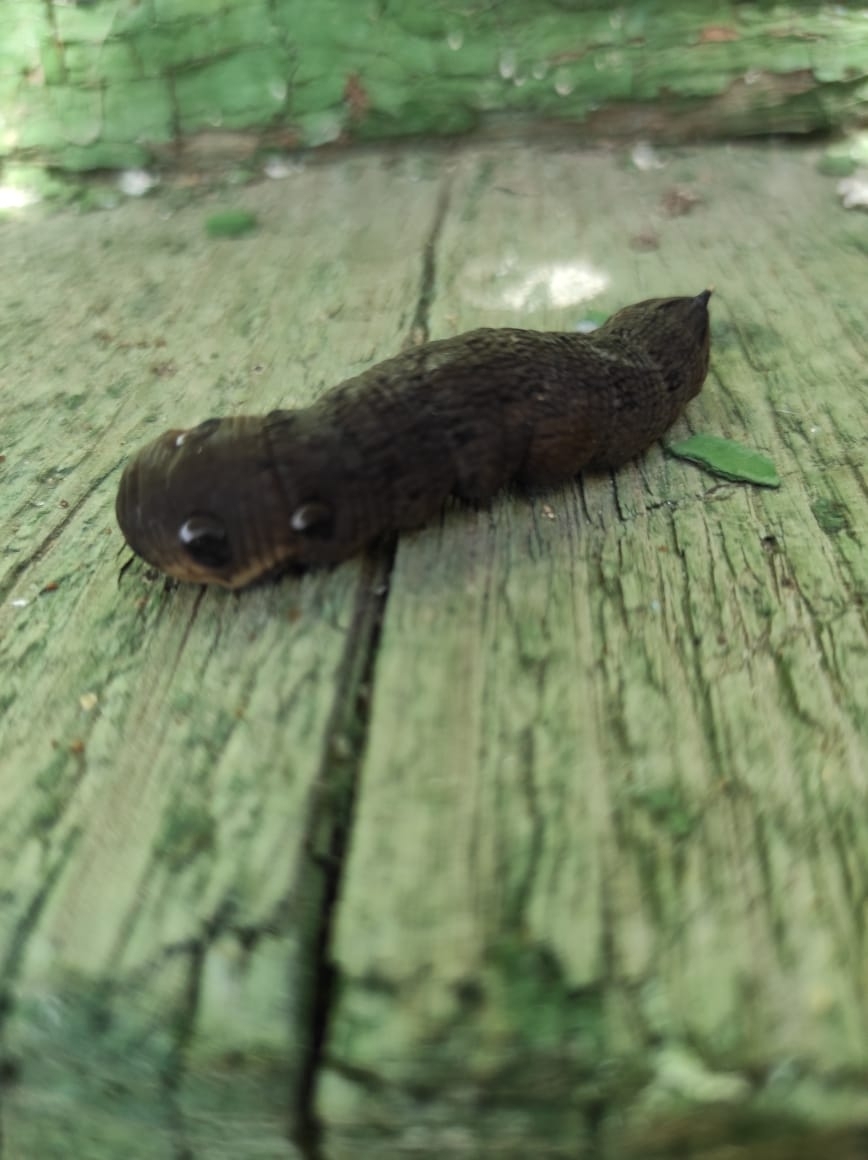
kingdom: Animalia
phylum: Arthropoda
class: Insecta
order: Lepidoptera
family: Sphingidae
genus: Deilephila
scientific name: Deilephila elpenor
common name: Elephant hawk-moth
